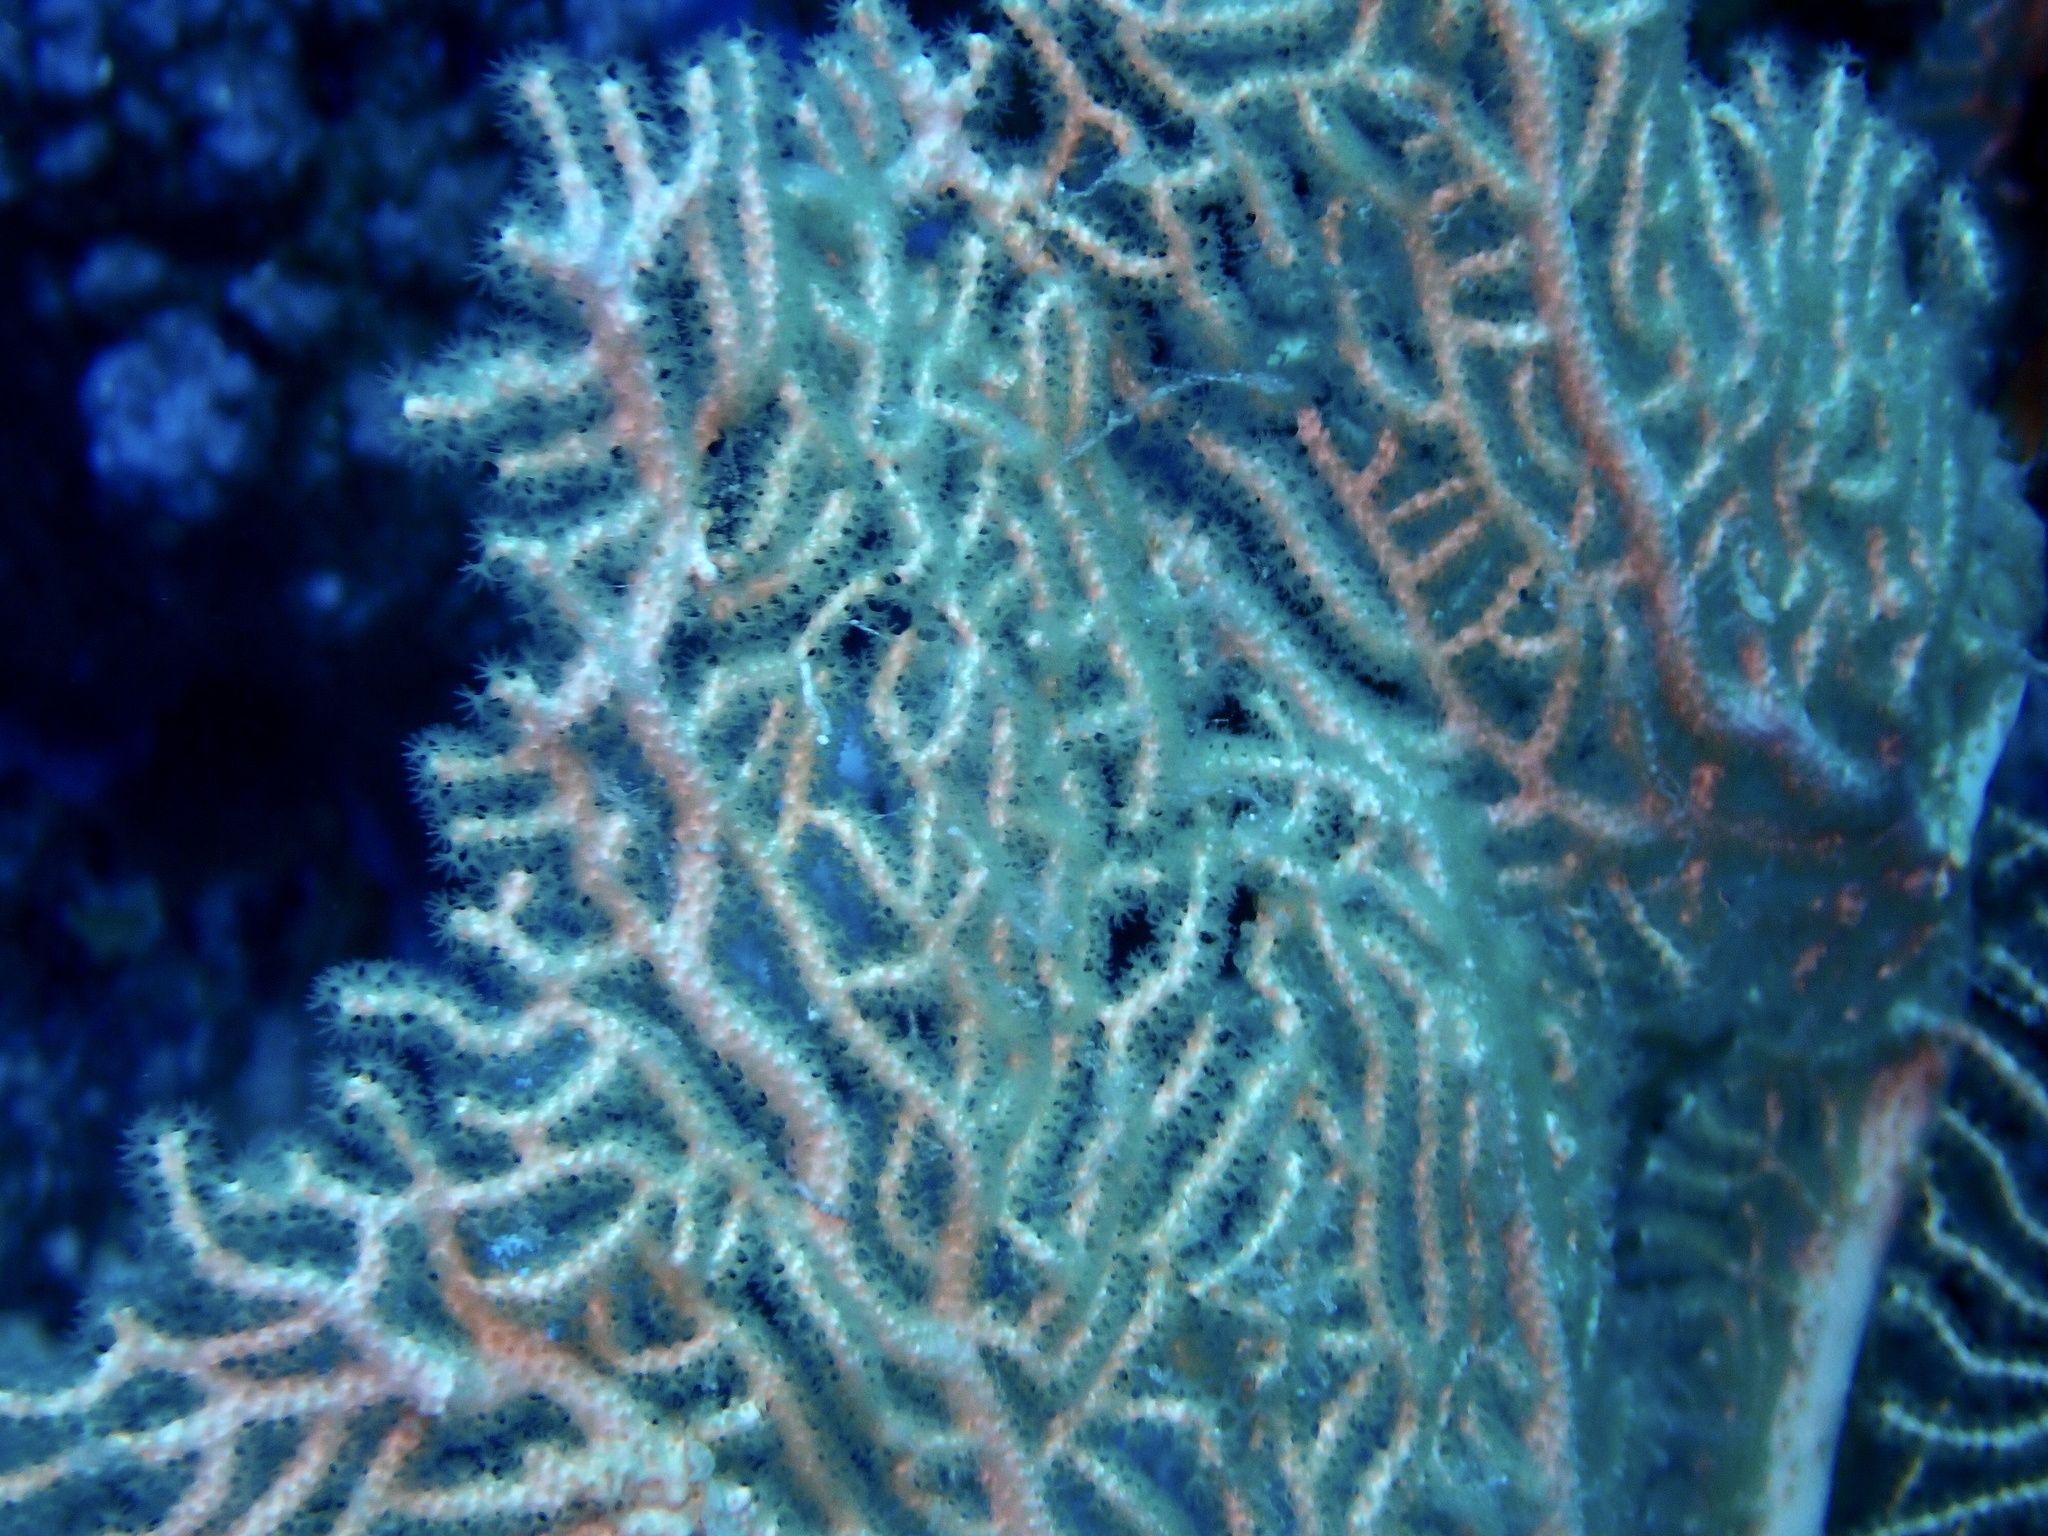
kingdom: Animalia
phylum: Cnidaria
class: Anthozoa
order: Malacalcyonacea
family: Subergorgiidae
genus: Annella
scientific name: Annella mollis
